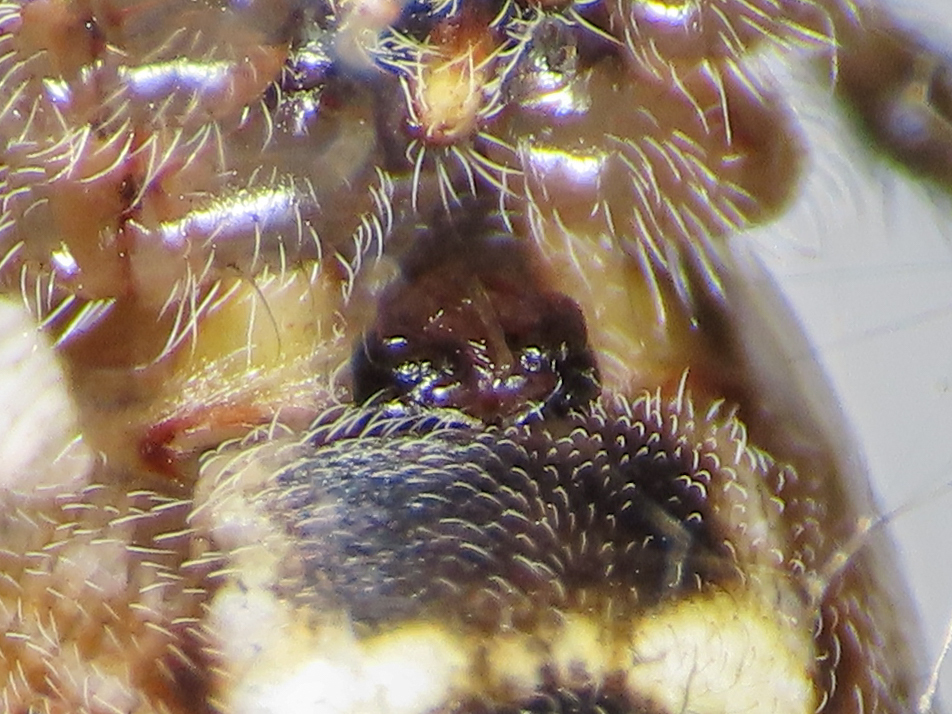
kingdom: Animalia
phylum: Arthropoda
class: Arachnida
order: Araneae
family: Araneidae
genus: Cyclosa
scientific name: Cyclosa sierrae
